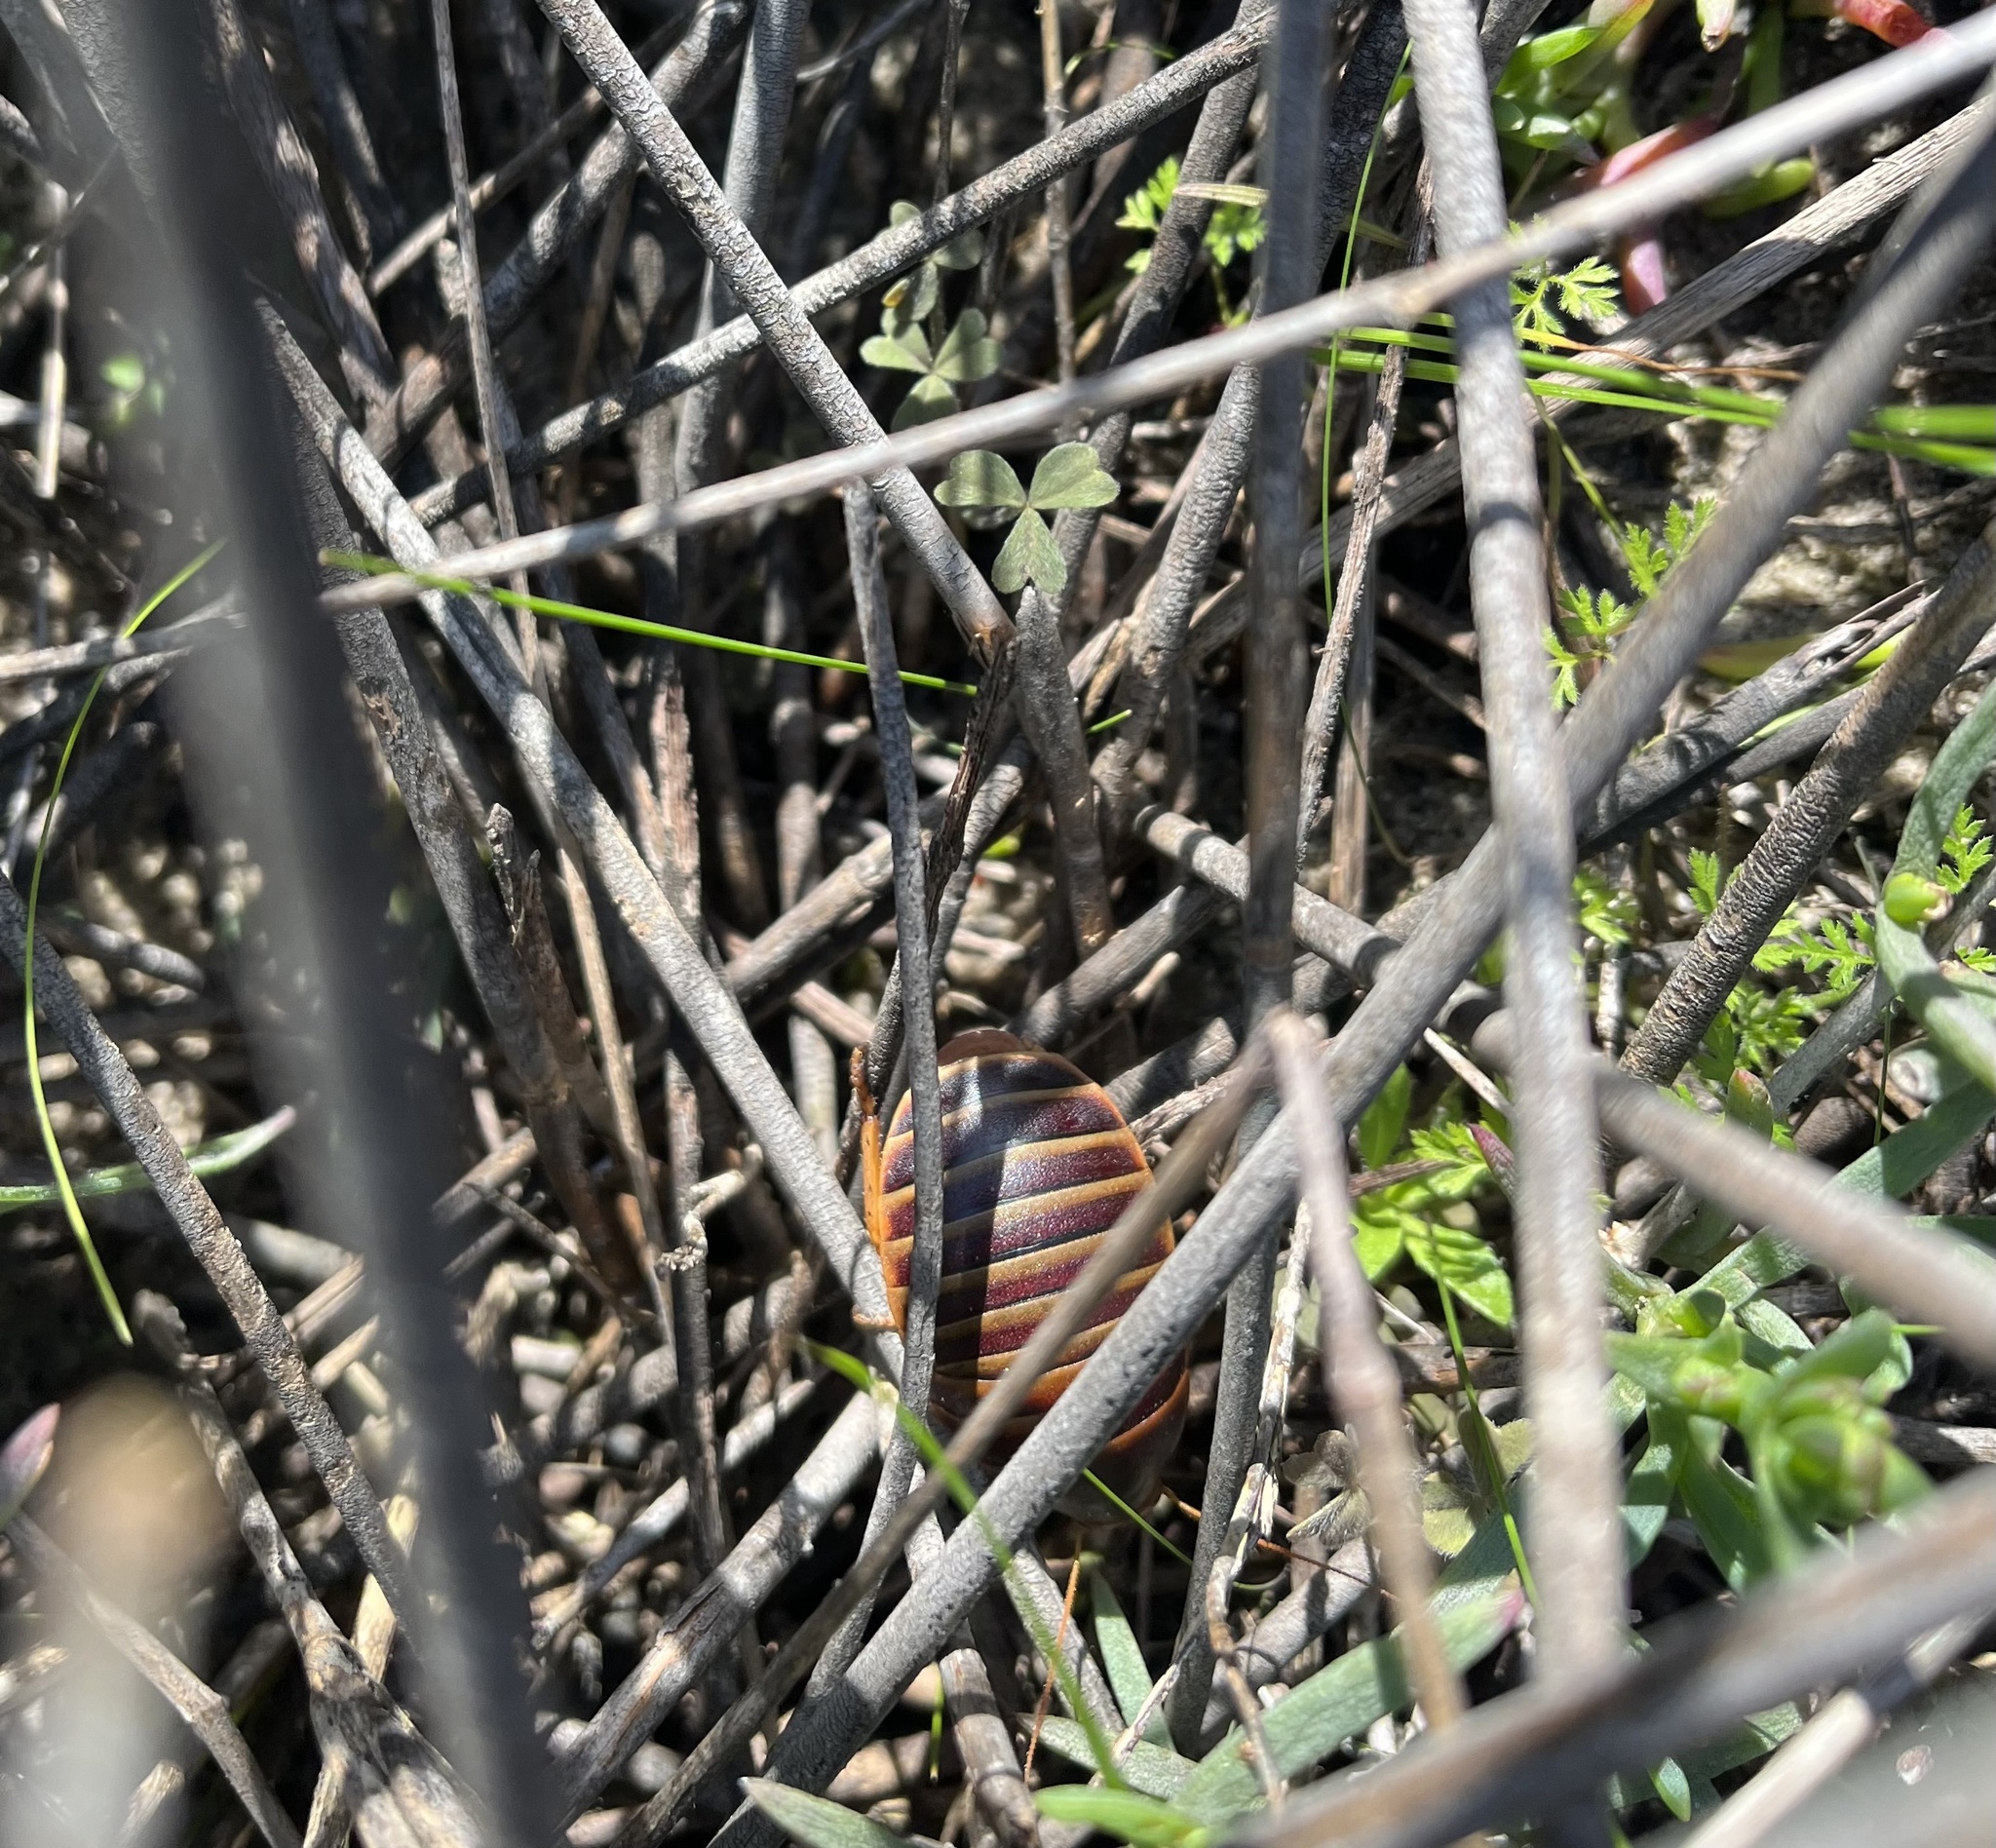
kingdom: Animalia
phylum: Arthropoda
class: Insecta
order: Blattodea
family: Blaberidae
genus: Aptera
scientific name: Aptera fusca
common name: Cape mountain cockroach
